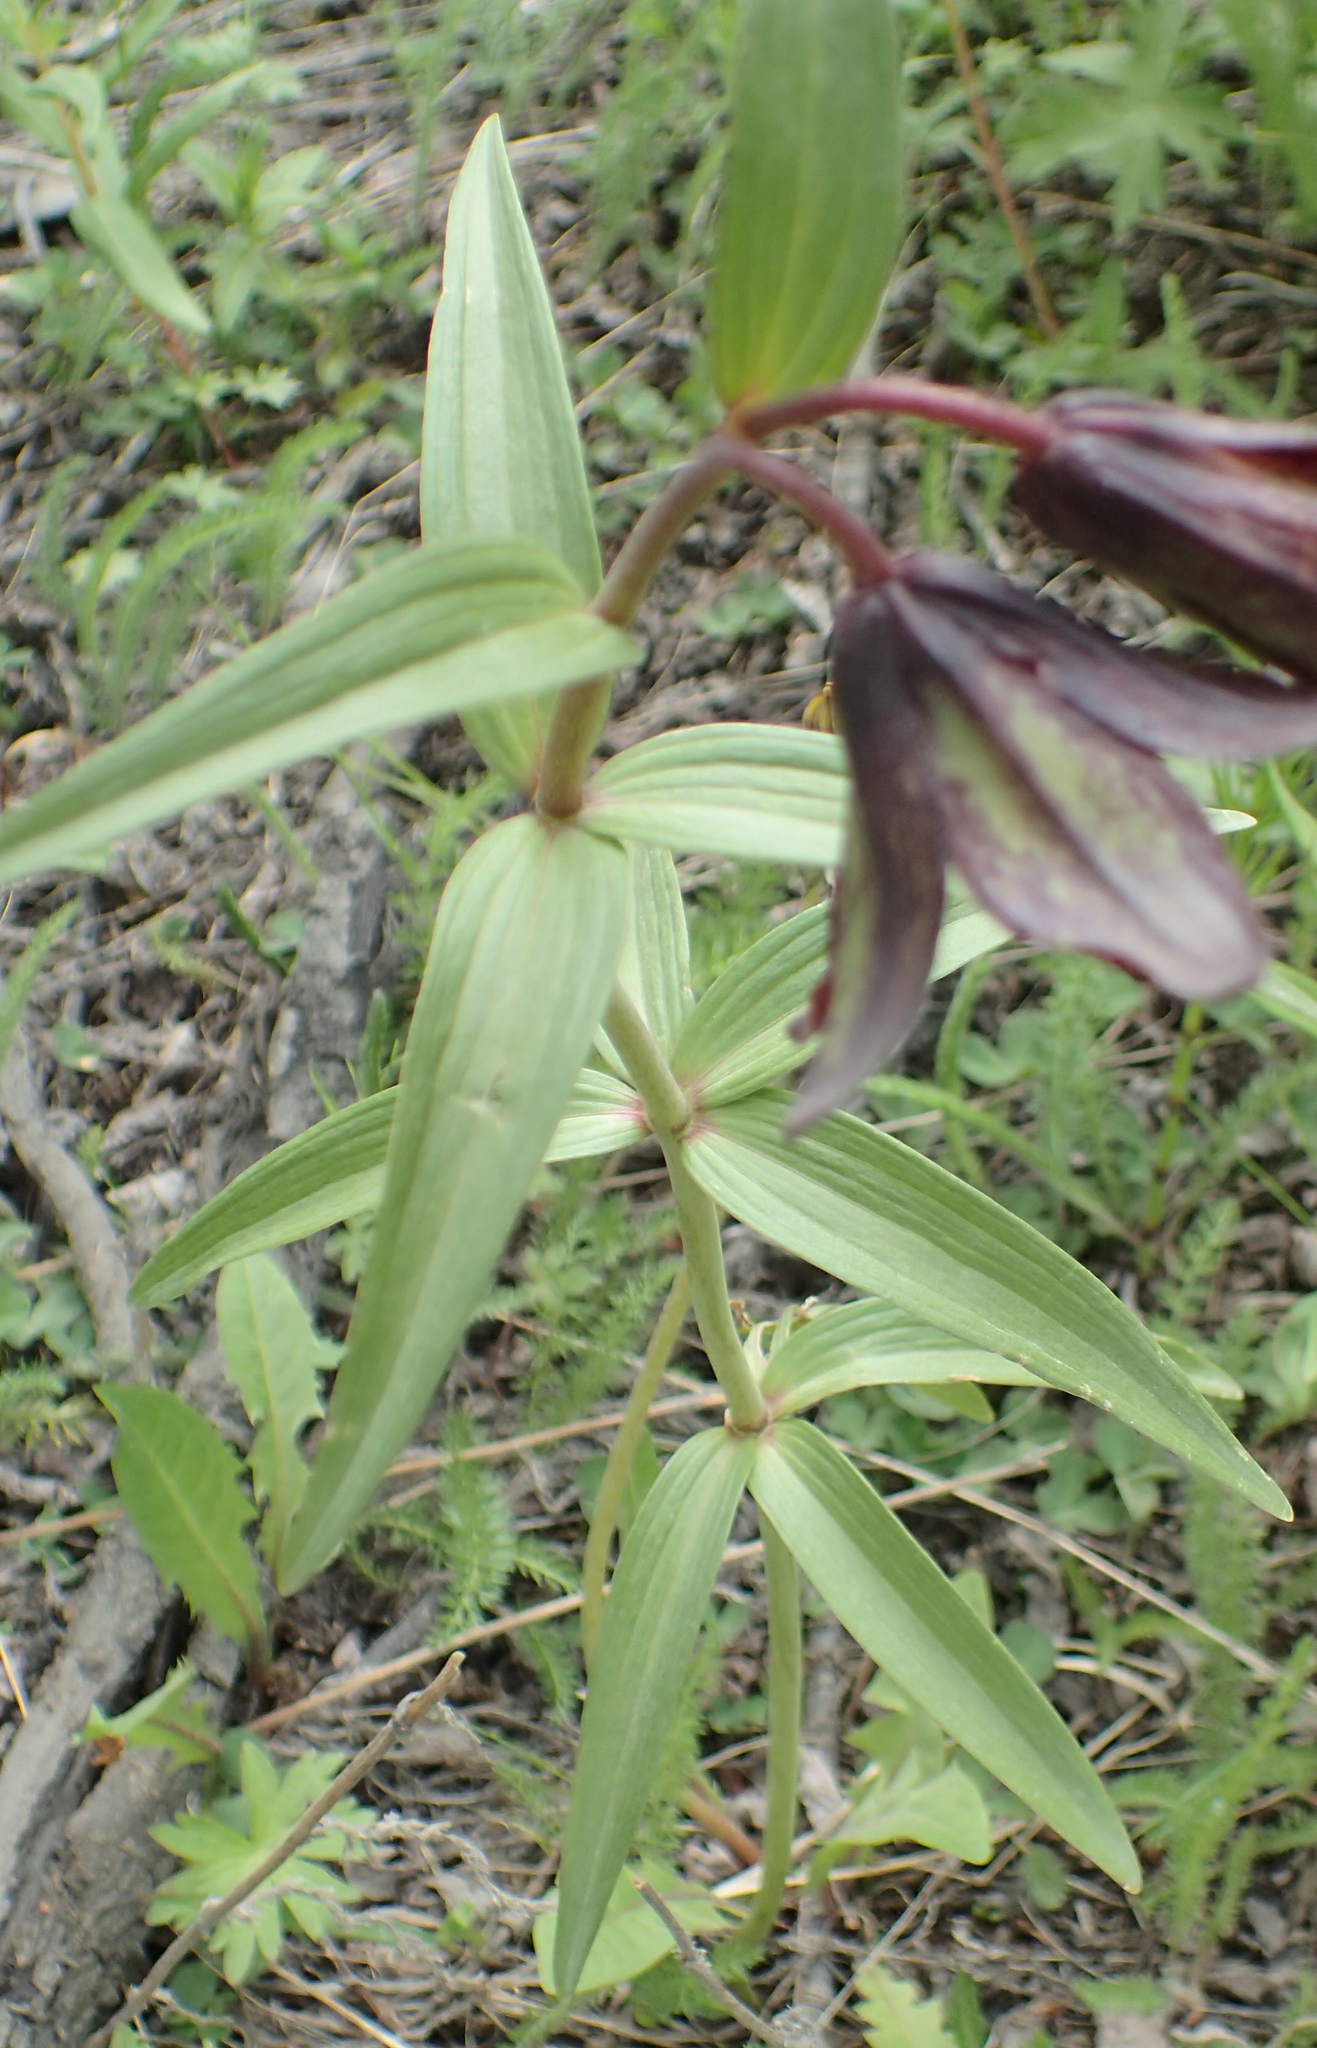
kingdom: Plantae
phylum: Tracheophyta
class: Liliopsida
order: Liliales
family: Liliaceae
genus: Fritillaria
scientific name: Fritillaria camschatcensis
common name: Kamchatka fritillary
